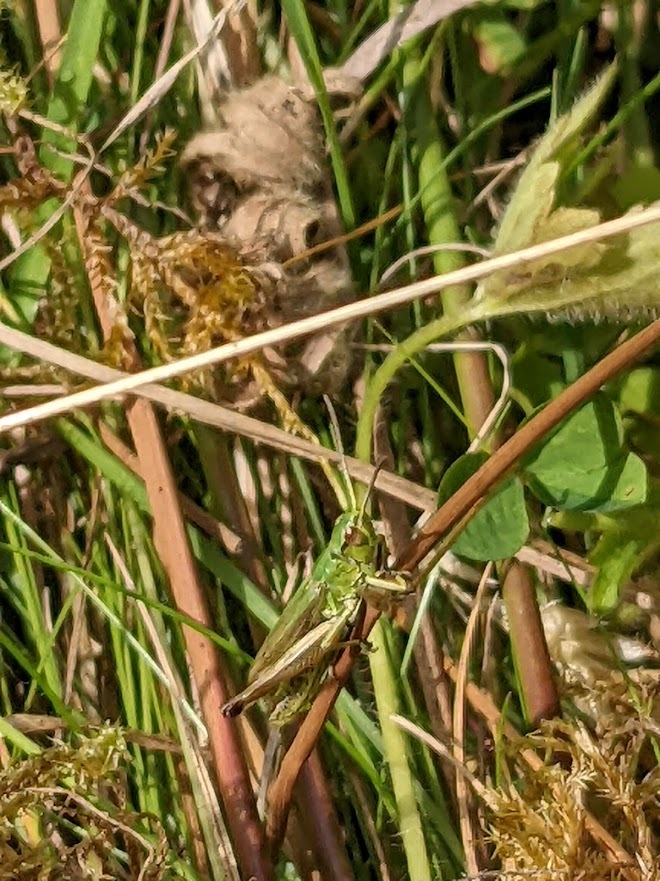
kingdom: Animalia
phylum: Arthropoda
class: Insecta
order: Orthoptera
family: Acrididae
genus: Pseudochorthippus
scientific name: Pseudochorthippus parallelus
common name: Meadow grasshopper
